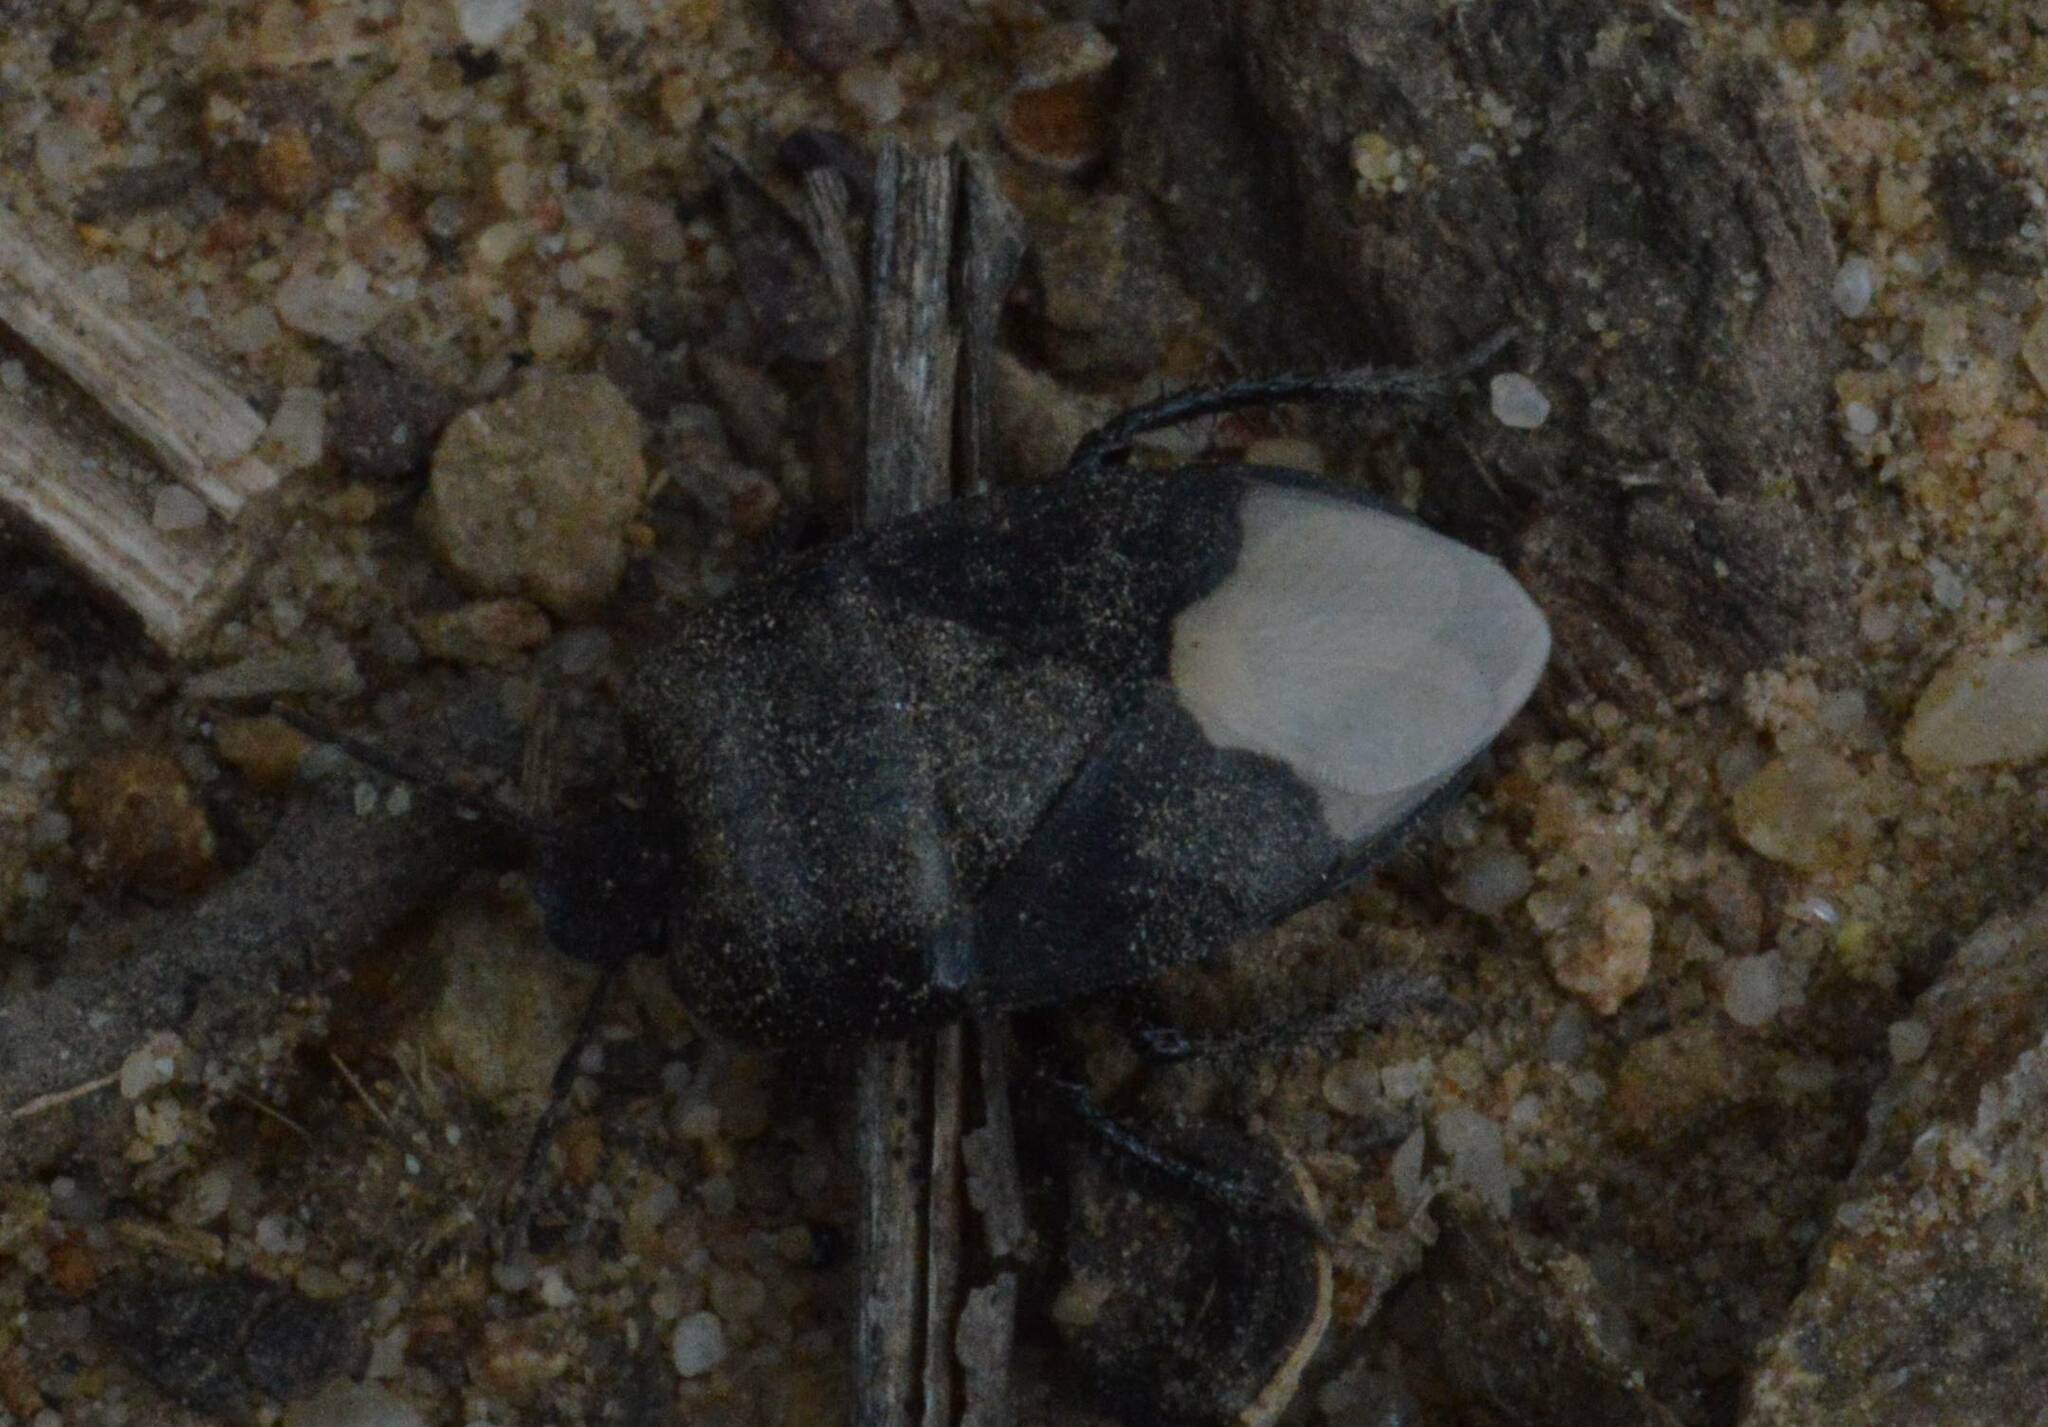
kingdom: Animalia
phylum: Arthropoda
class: Insecta
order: Hemiptera
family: Cydnidae
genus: Cydnus
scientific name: Cydnus aterrimus
